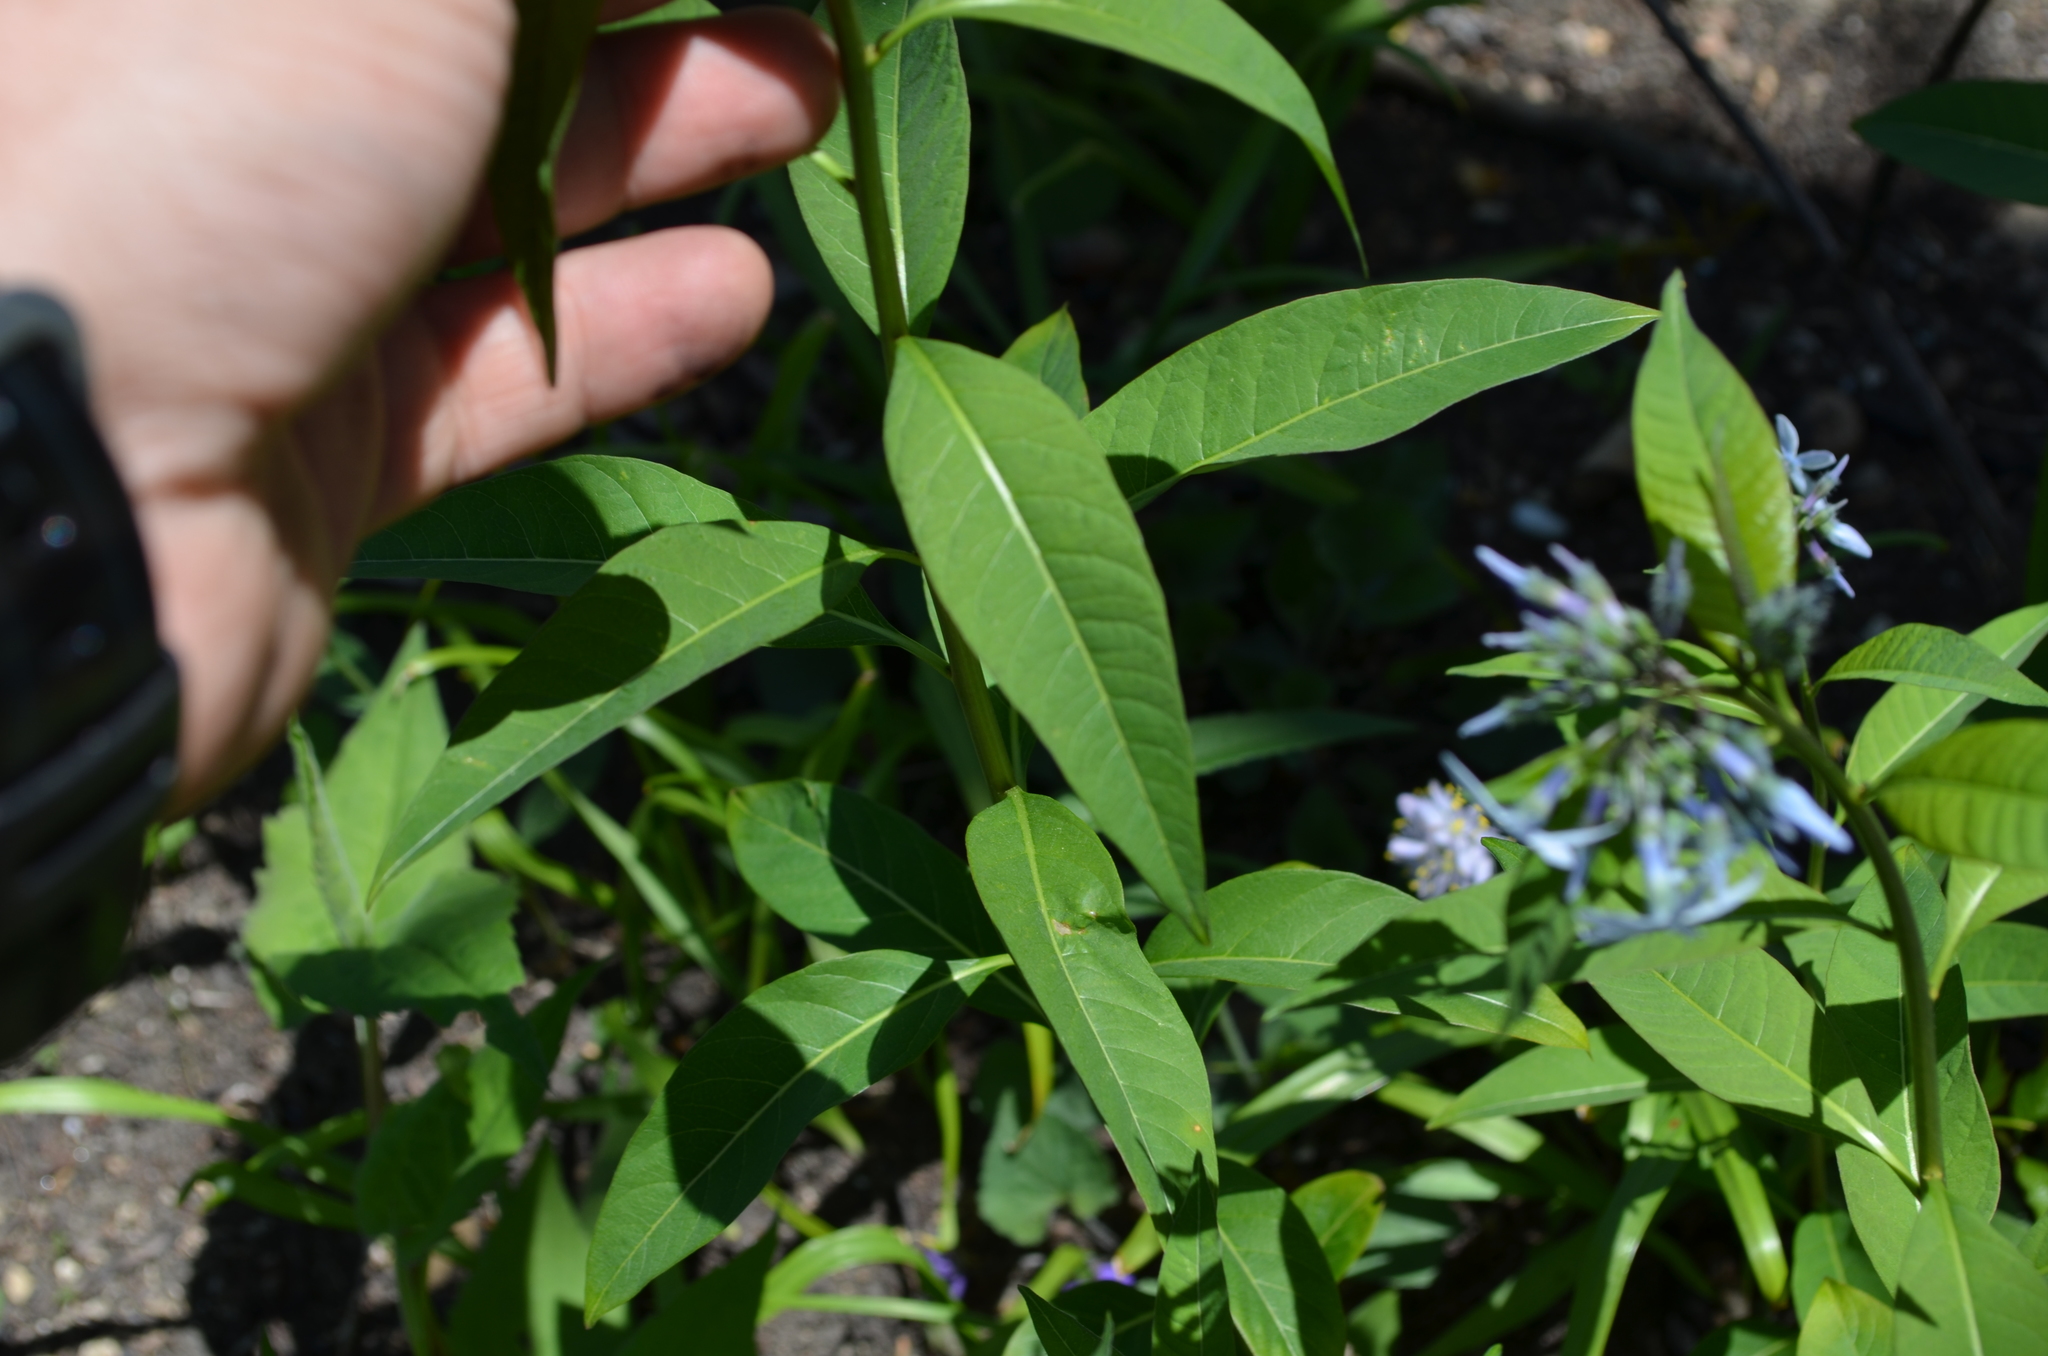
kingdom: Plantae
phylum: Tracheophyta
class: Magnoliopsida
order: Gentianales
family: Apocynaceae
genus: Amsonia
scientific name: Amsonia tabernaemontana
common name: Texas-star
